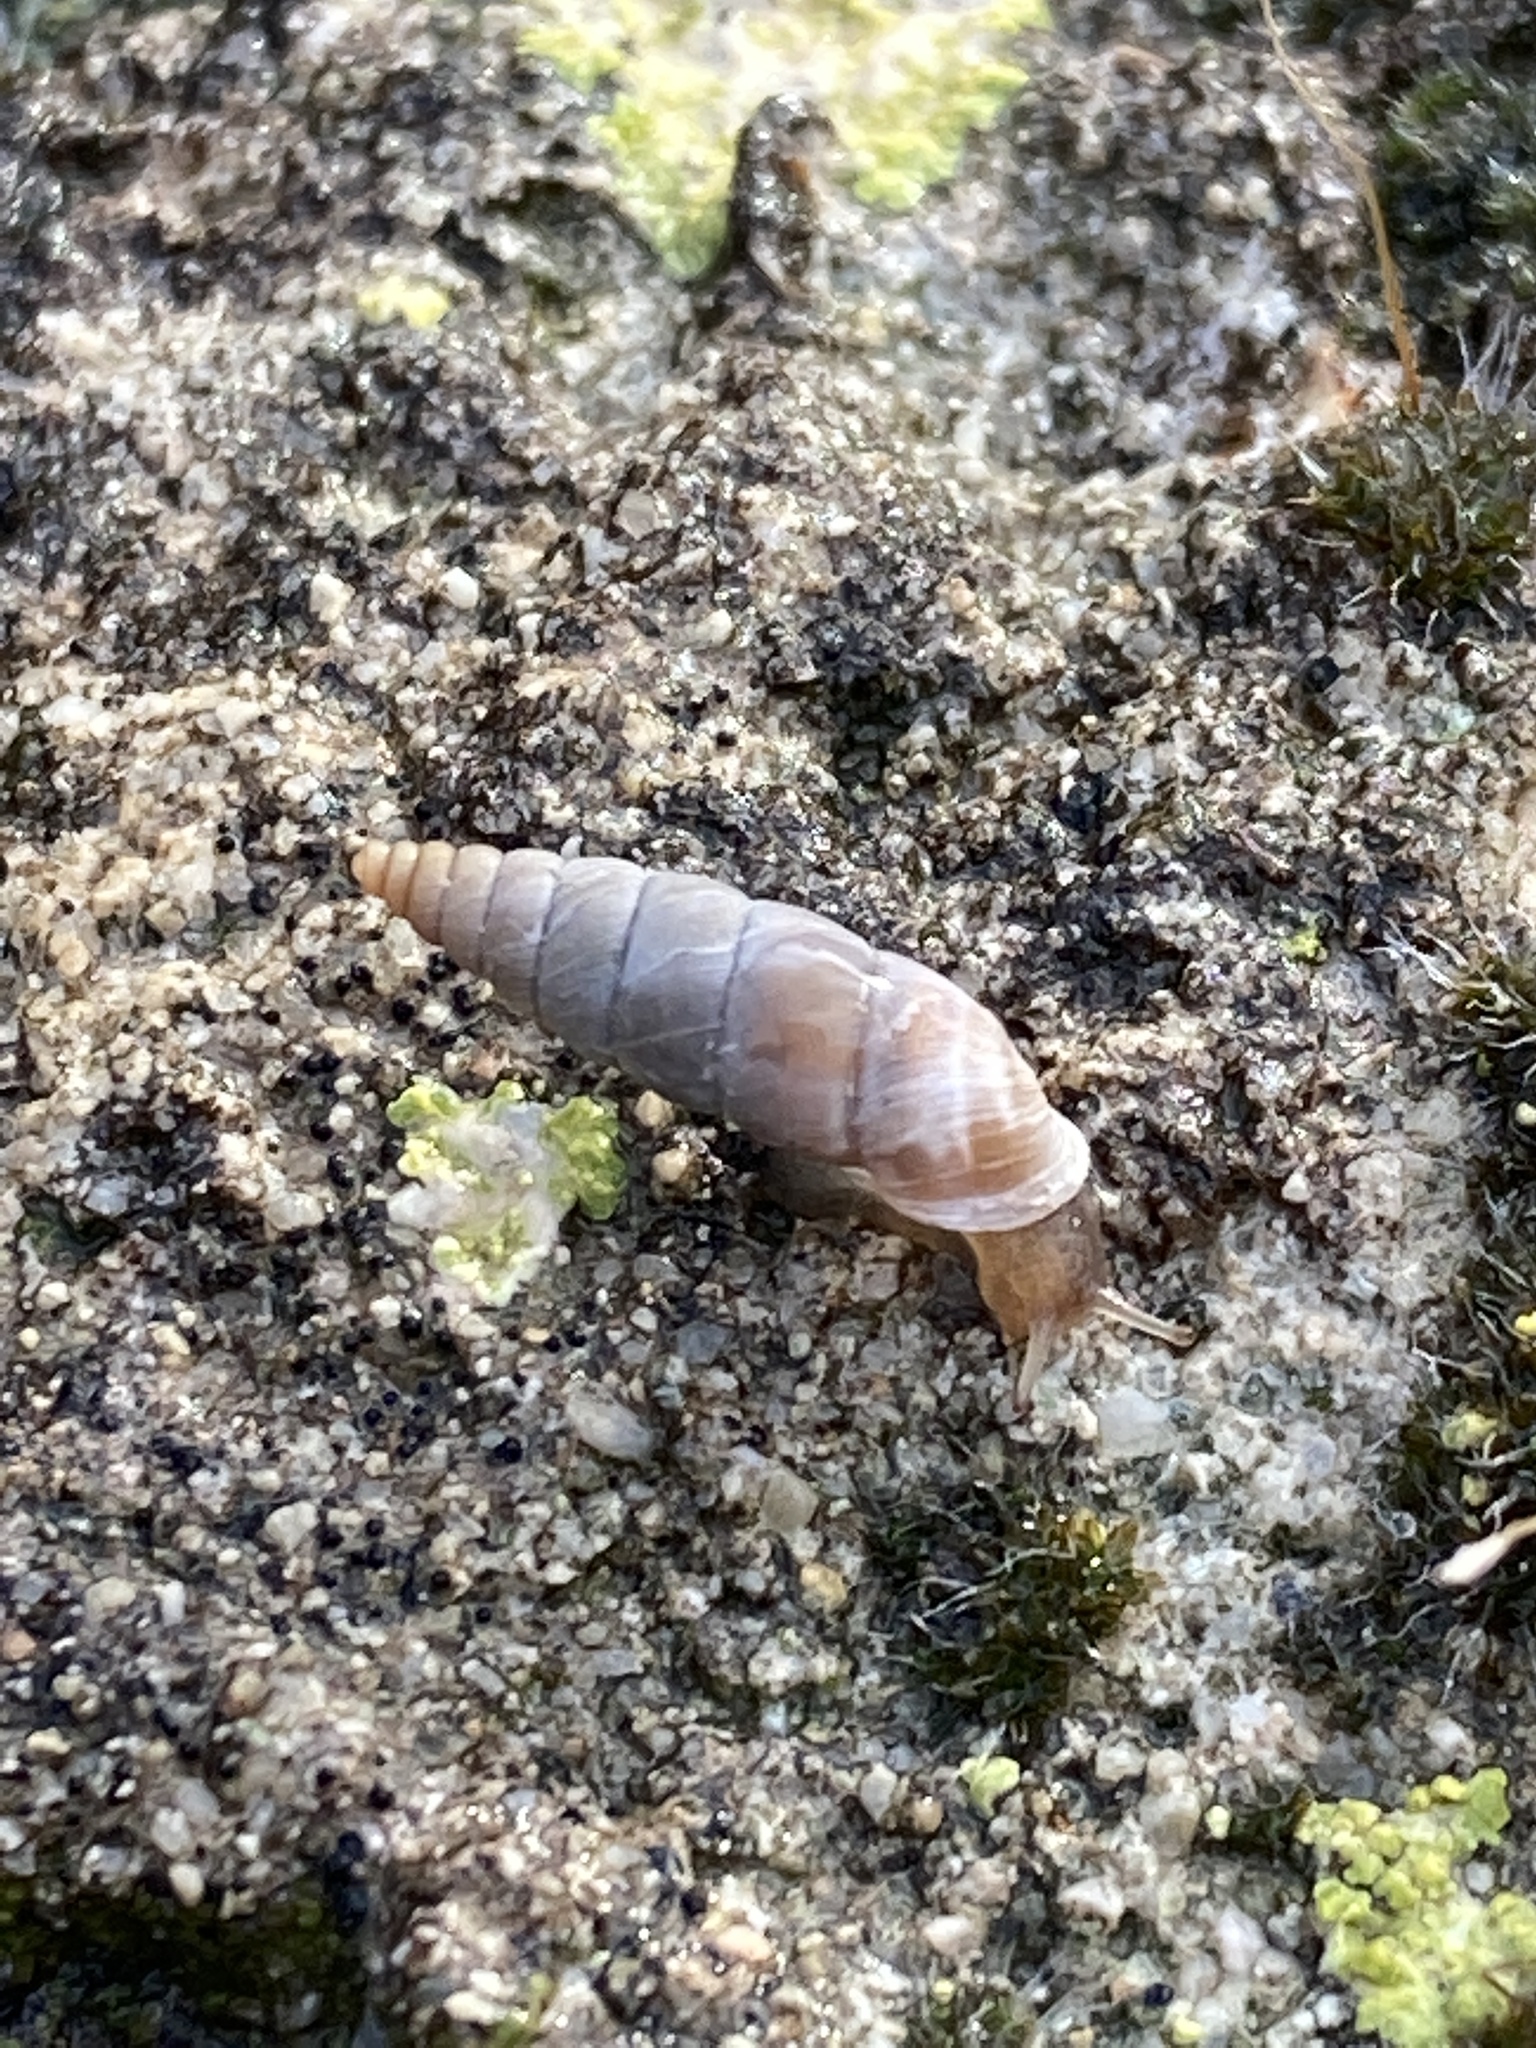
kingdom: Animalia
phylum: Mollusca
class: Gastropoda
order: Stylommatophora
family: Chondrinidae
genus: Solatopupa
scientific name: Solatopupa similis
